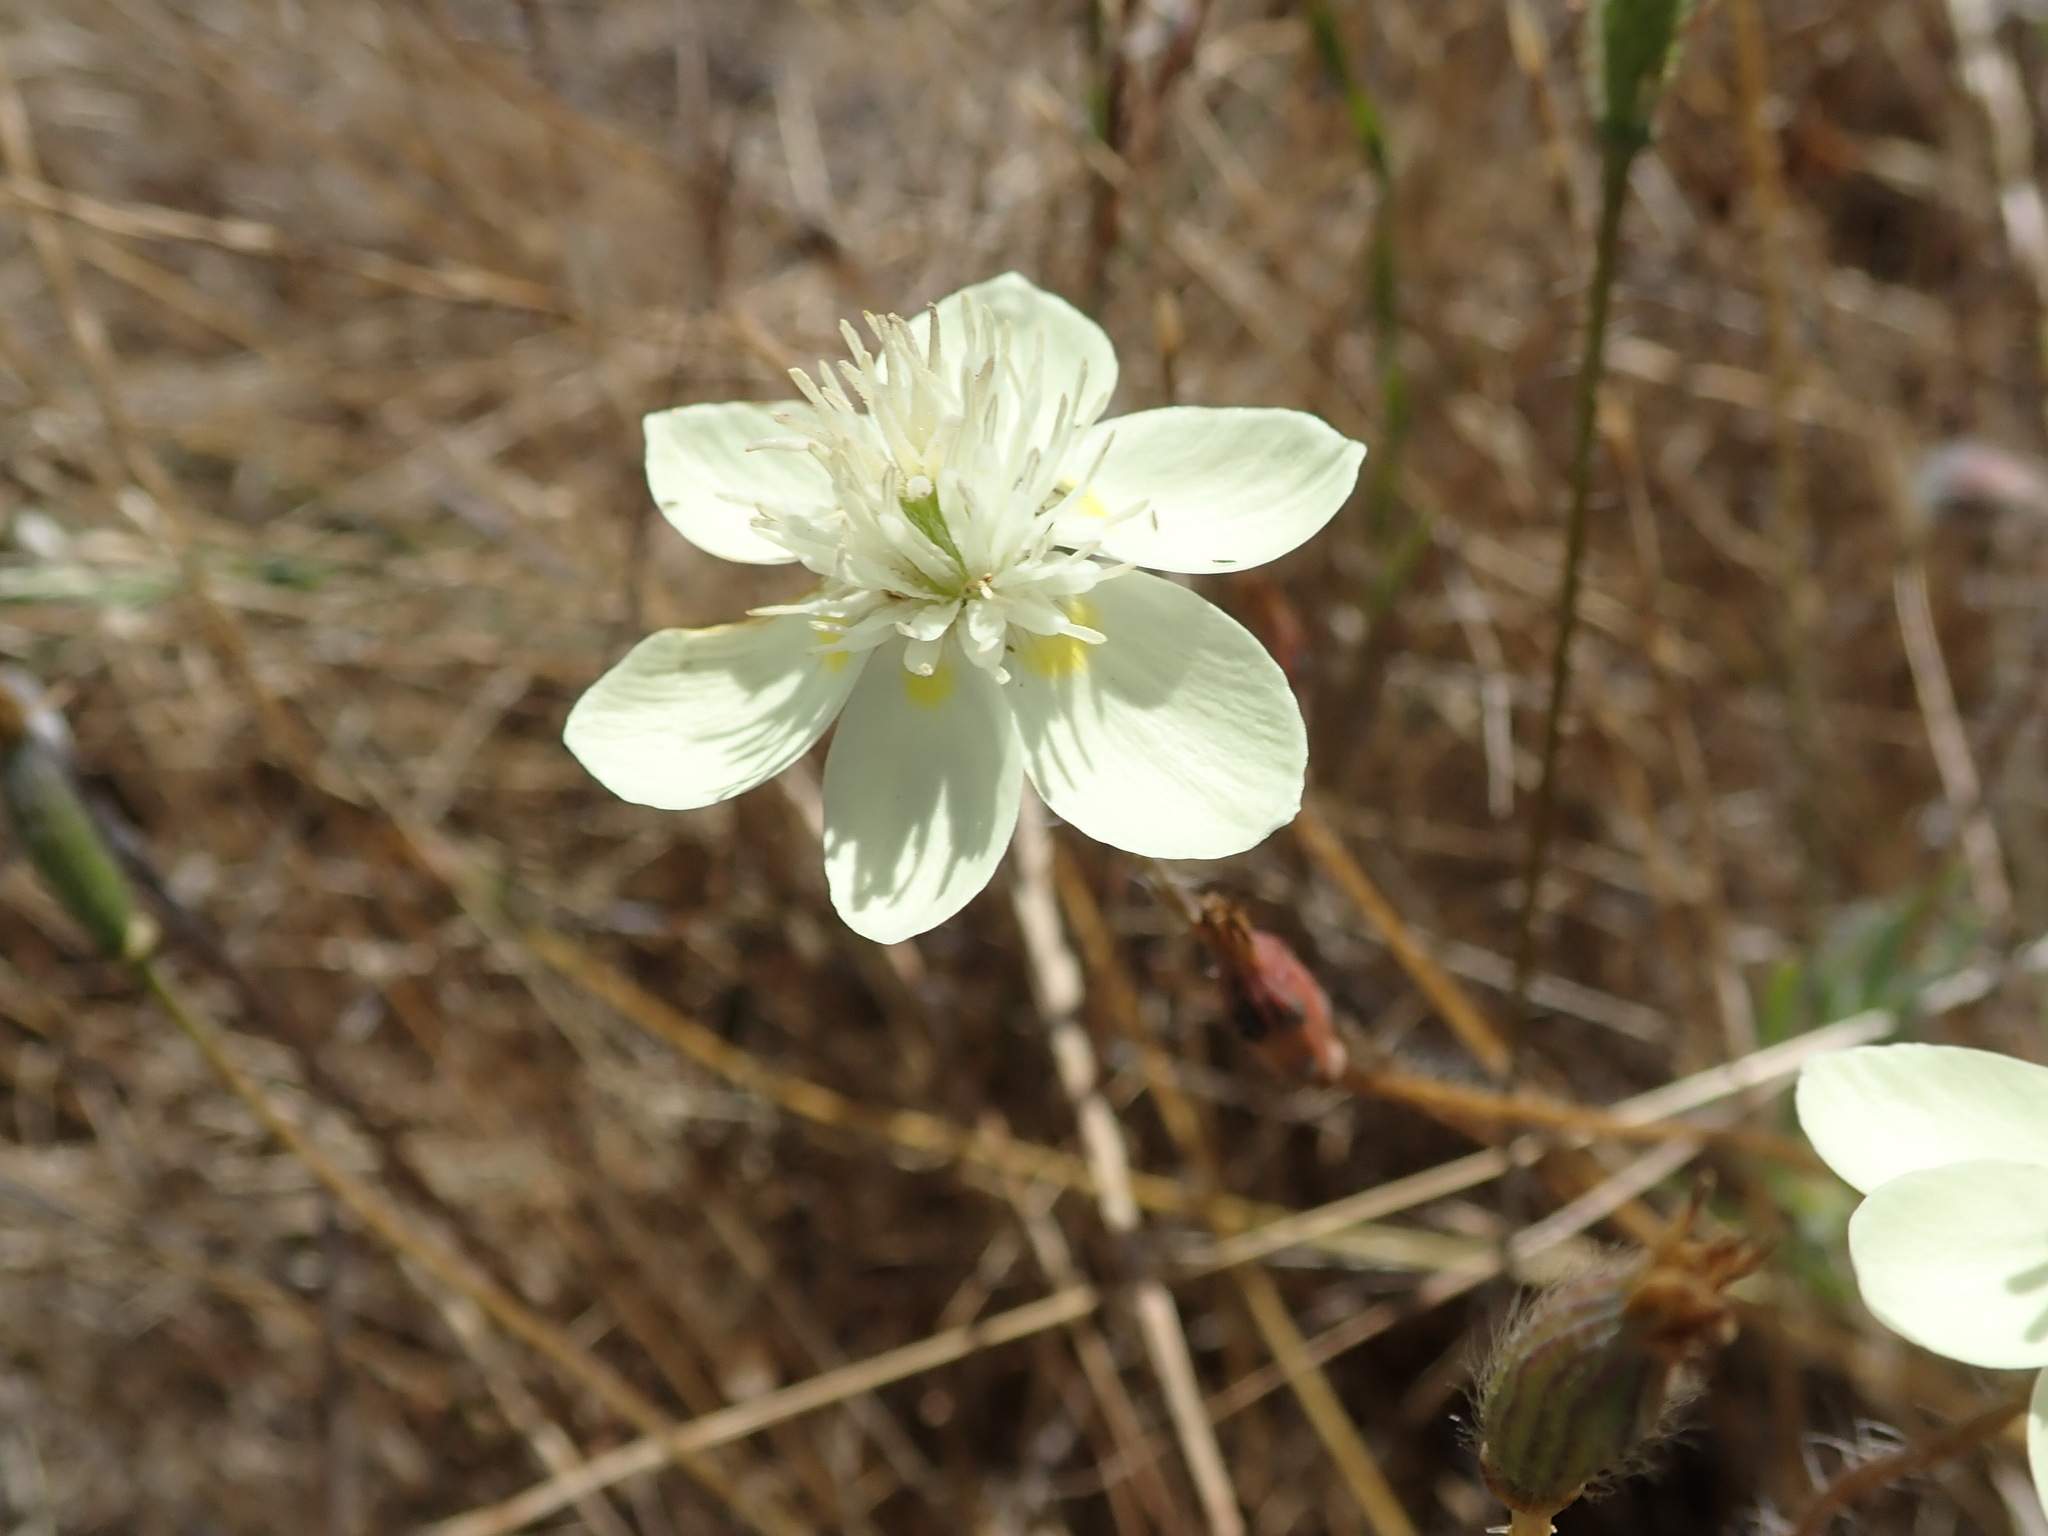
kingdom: Plantae
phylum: Tracheophyta
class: Magnoliopsida
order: Ranunculales
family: Papaveraceae
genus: Platystemon
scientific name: Platystemon californicus
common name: Cream-cups
